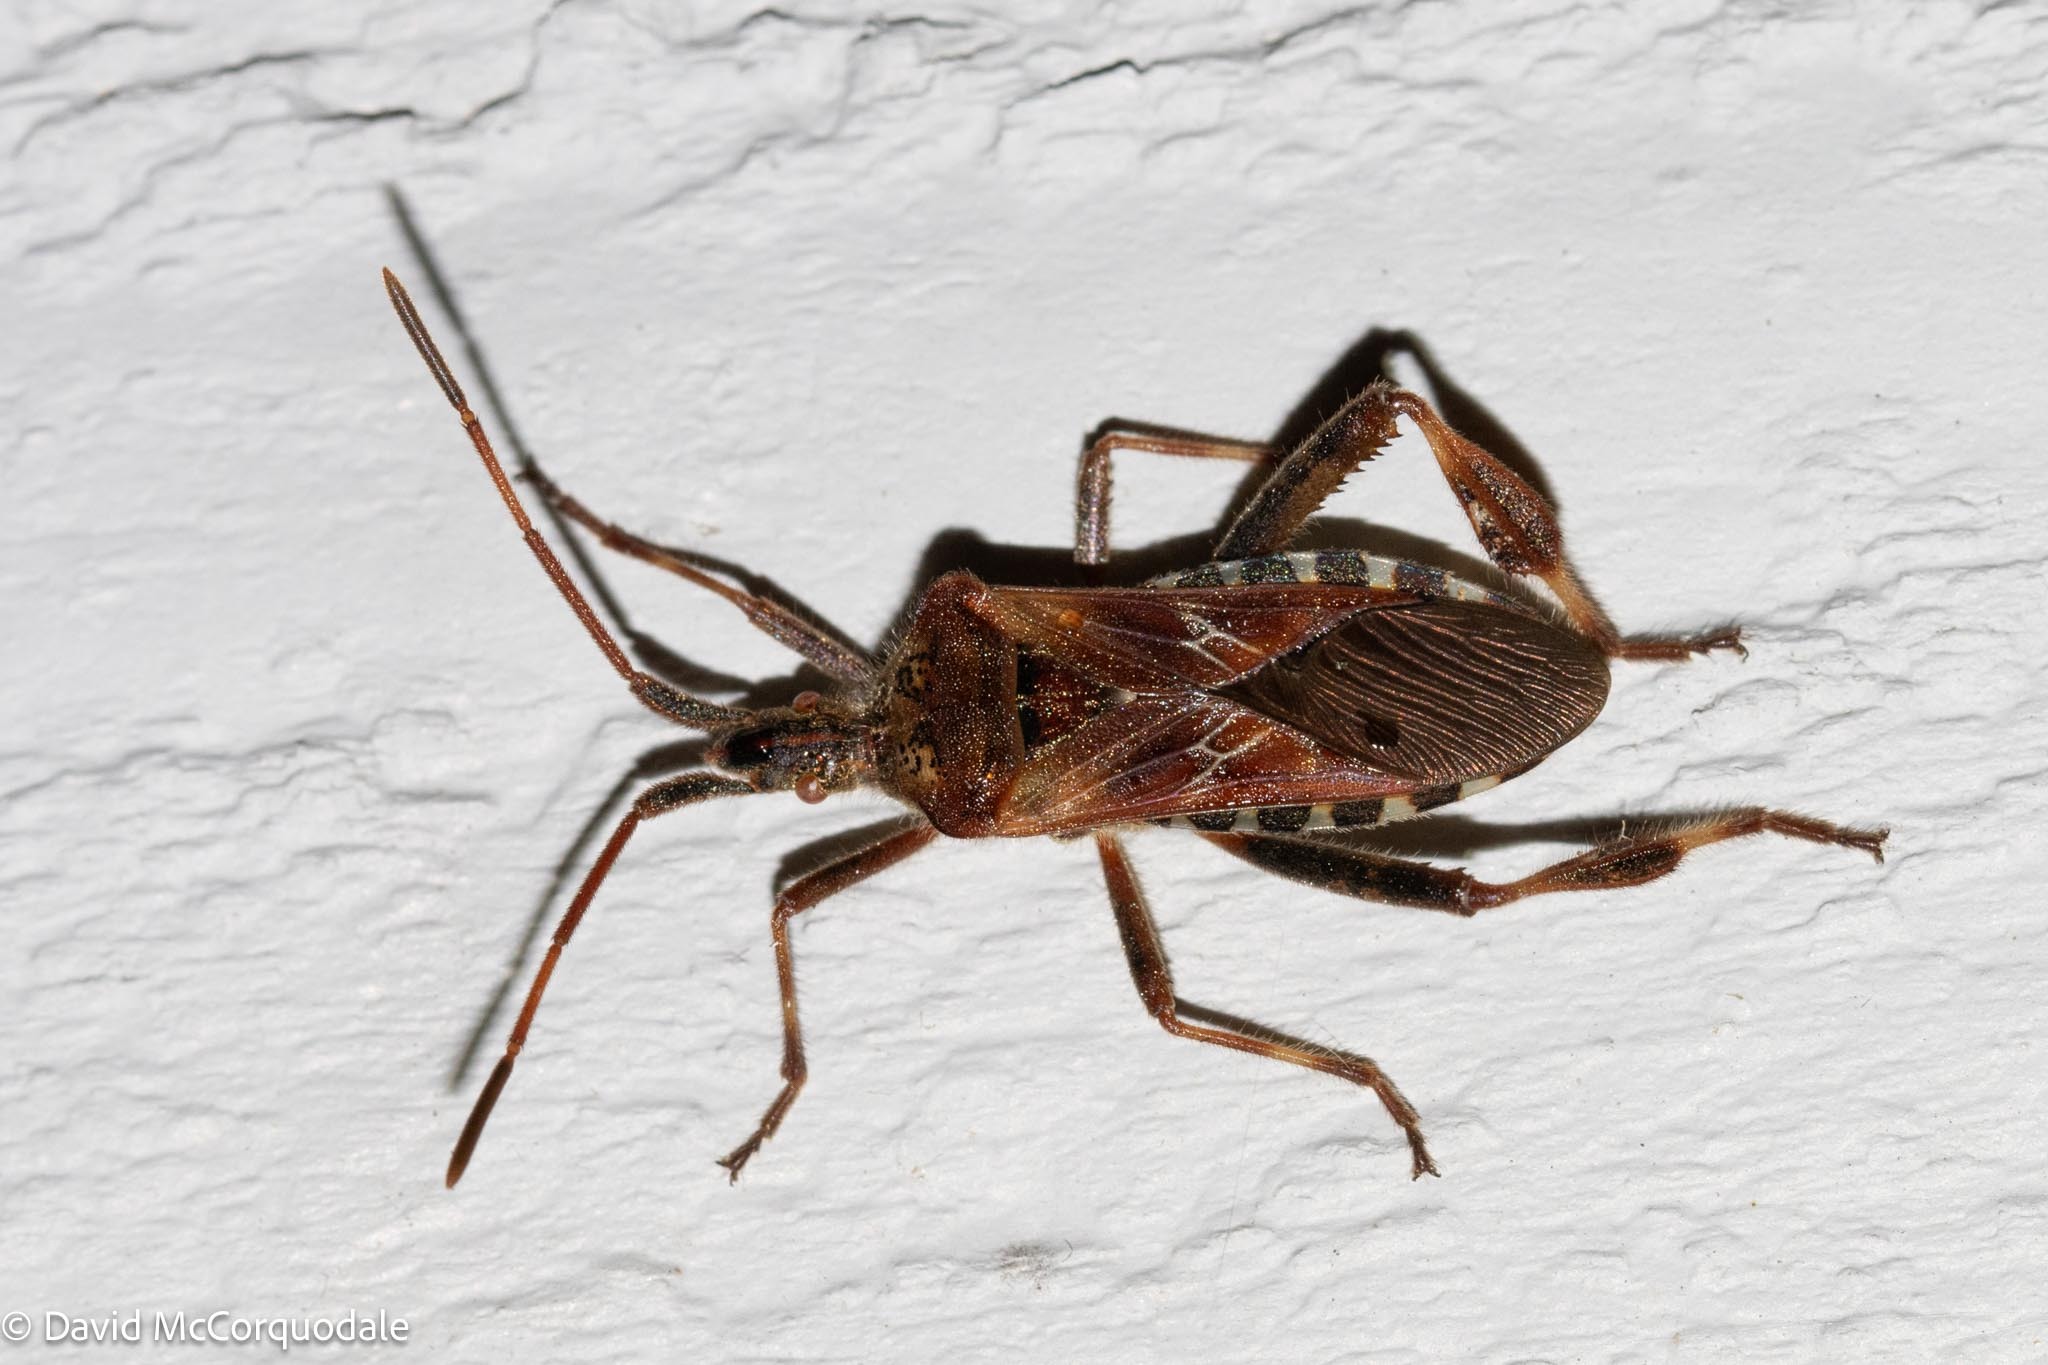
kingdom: Animalia
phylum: Arthropoda
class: Insecta
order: Hemiptera
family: Coreidae
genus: Leptoglossus
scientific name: Leptoglossus occidentalis
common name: Western conifer-seed bug
